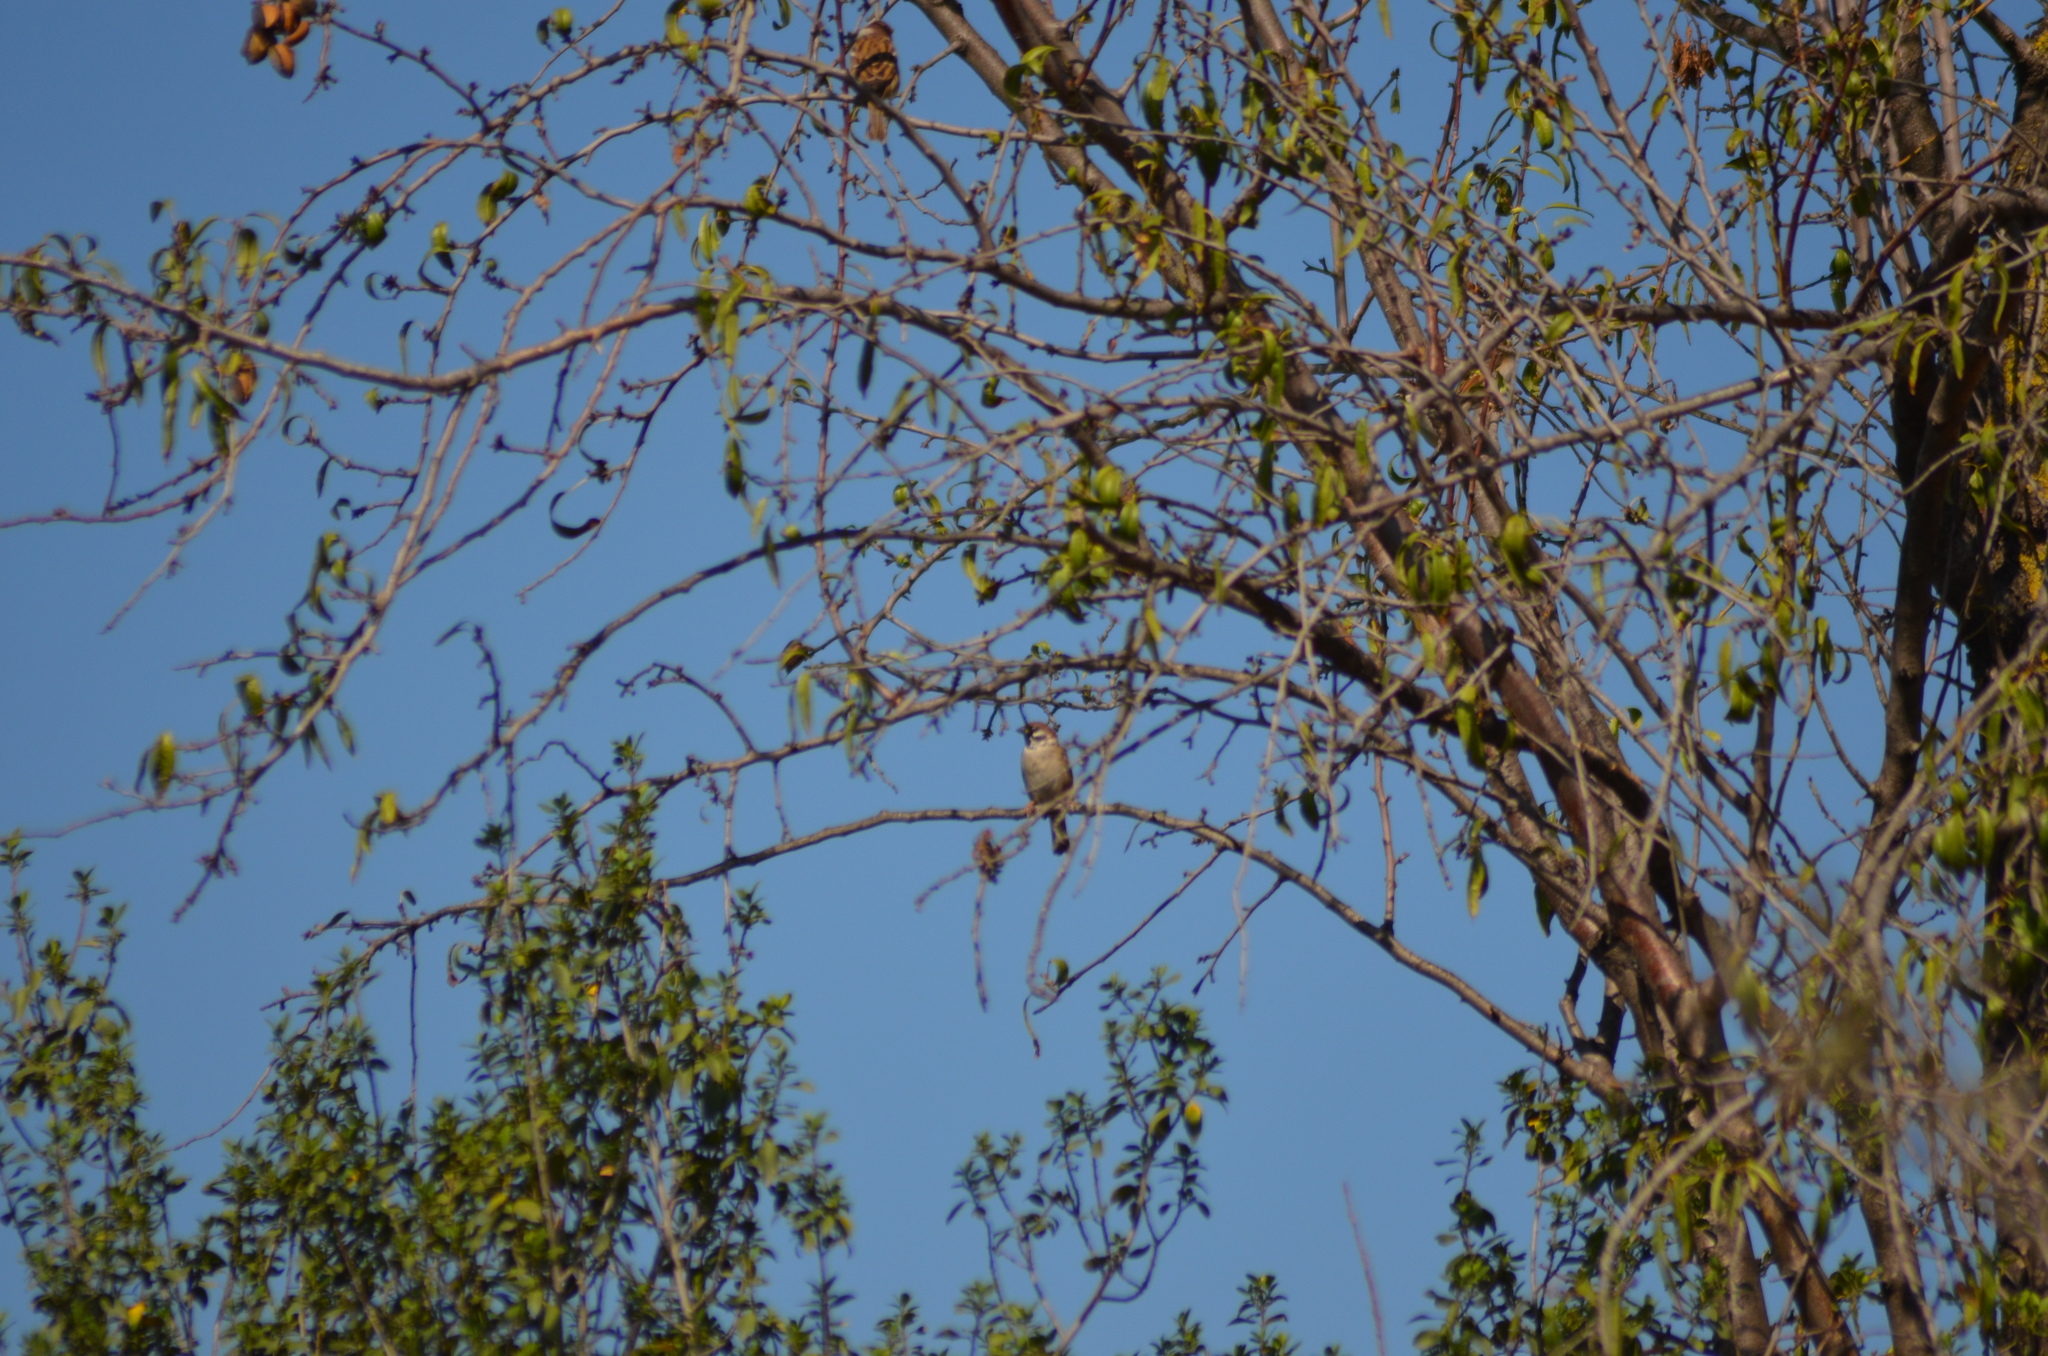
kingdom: Animalia
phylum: Chordata
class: Aves
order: Passeriformes
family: Passeridae
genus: Passer
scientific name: Passer montanus
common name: Eurasian tree sparrow
